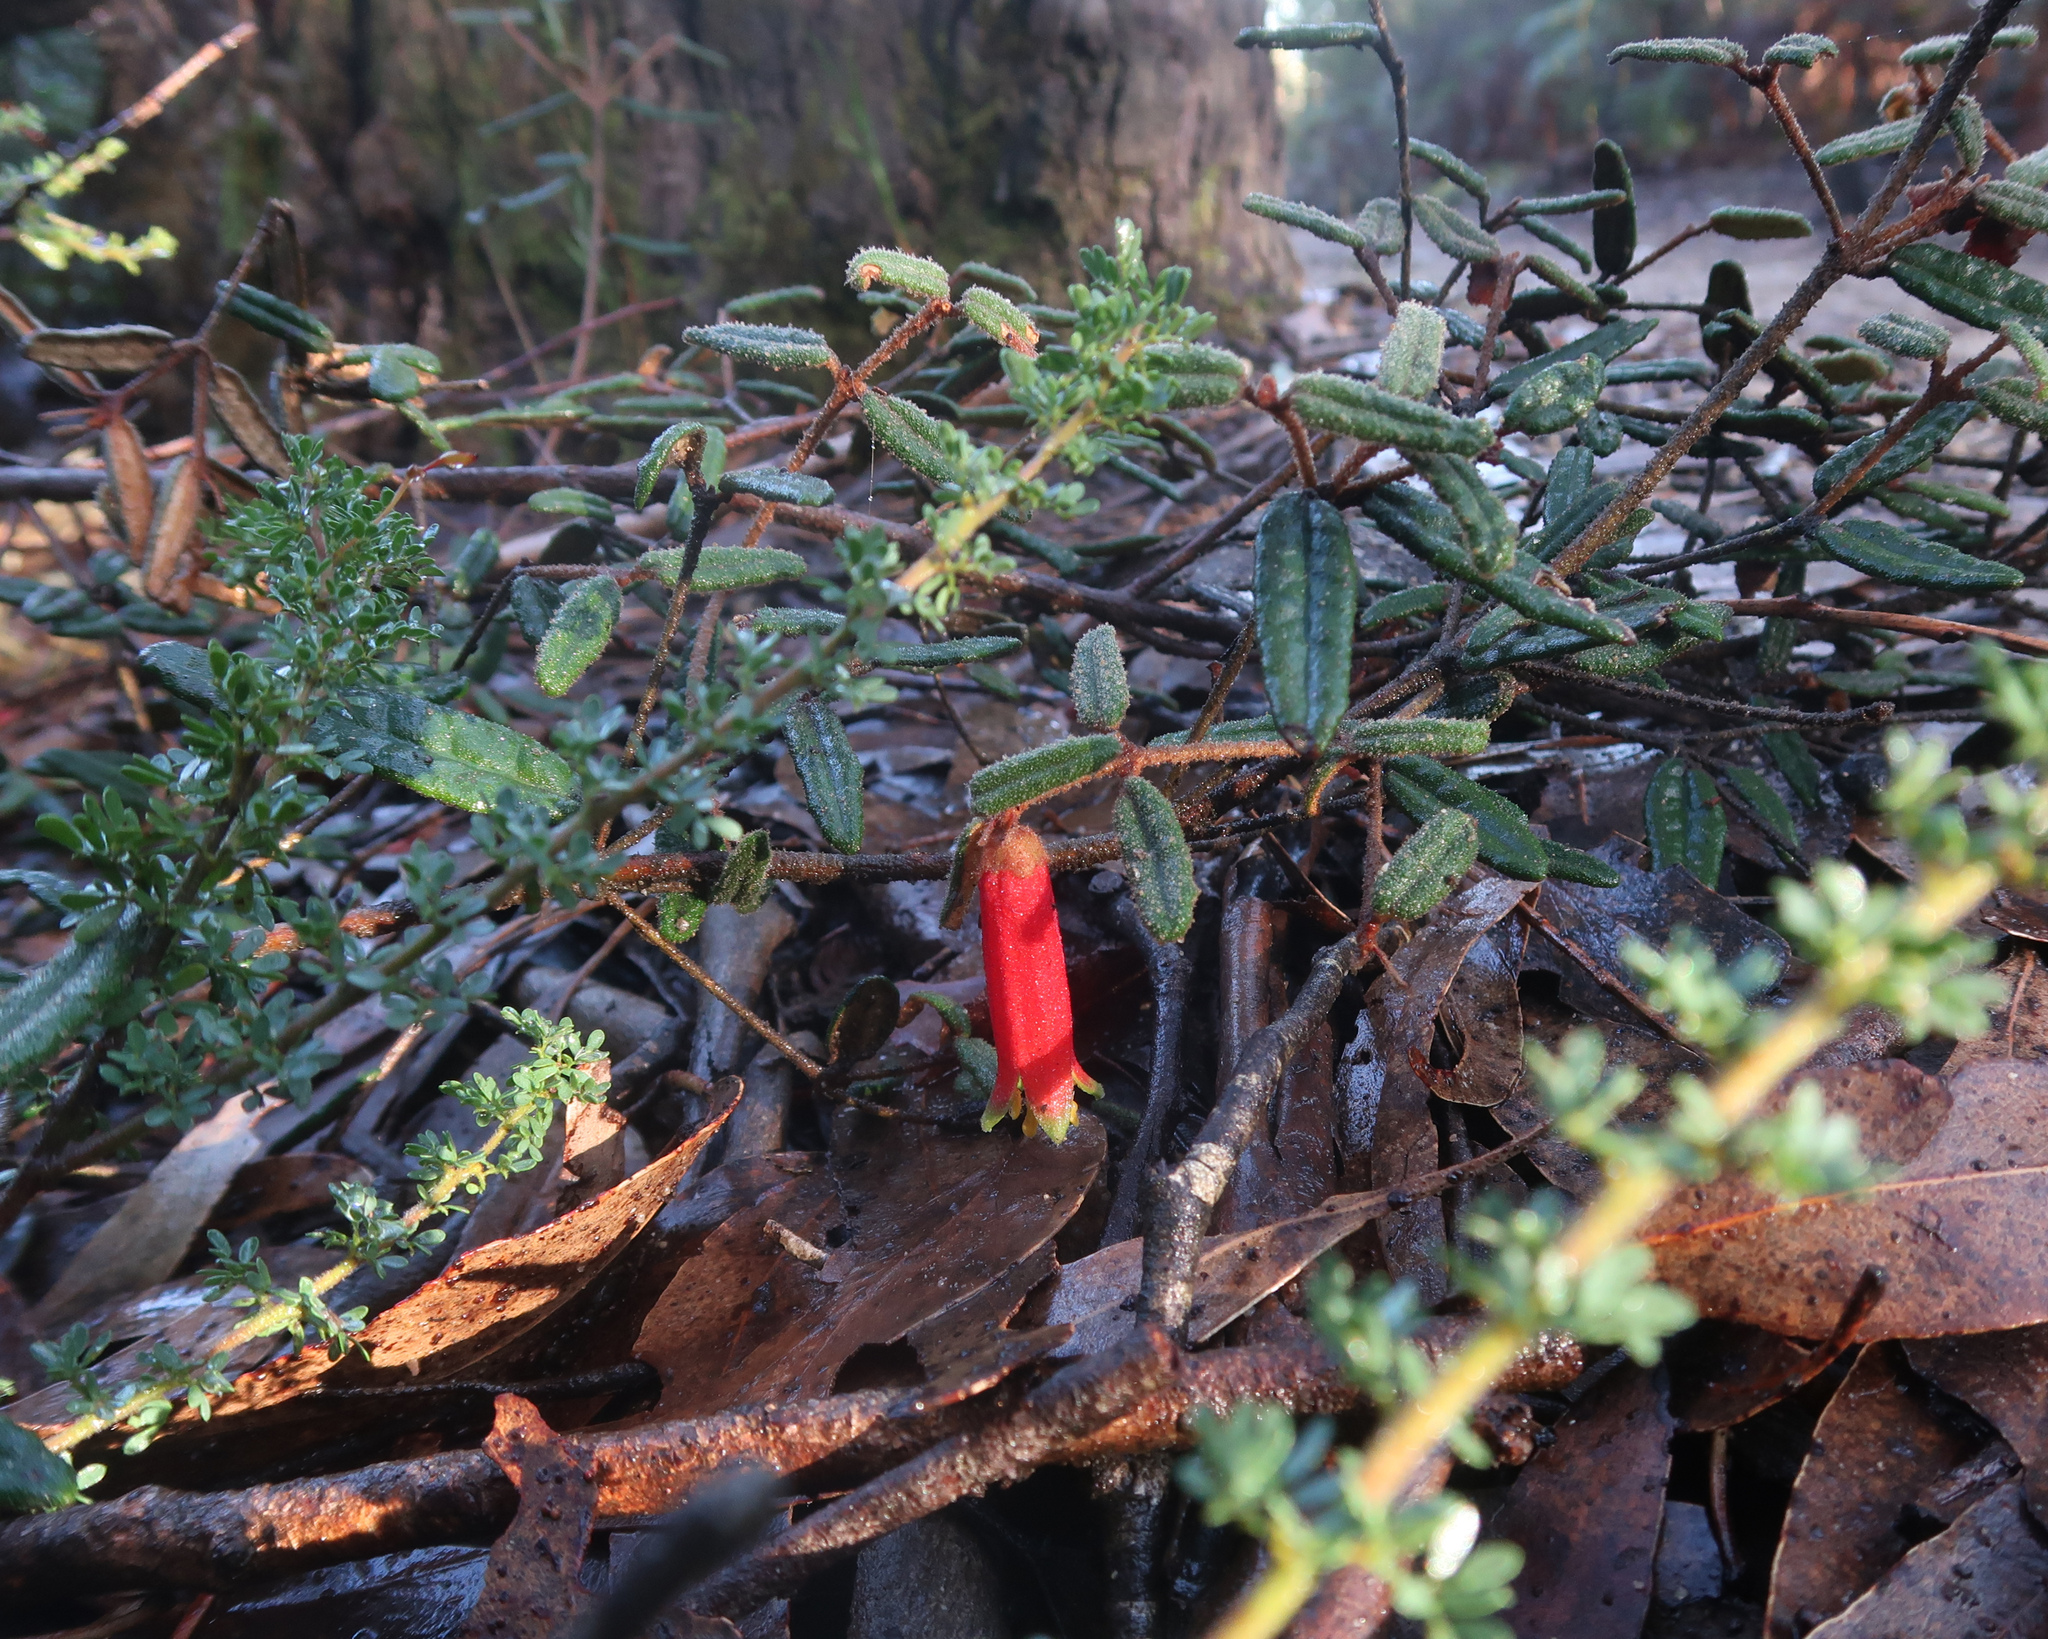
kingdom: Plantae
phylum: Tracheophyta
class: Magnoliopsida
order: Sapindales
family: Rutaceae
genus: Correa
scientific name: Correa reflexa
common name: Common correa
